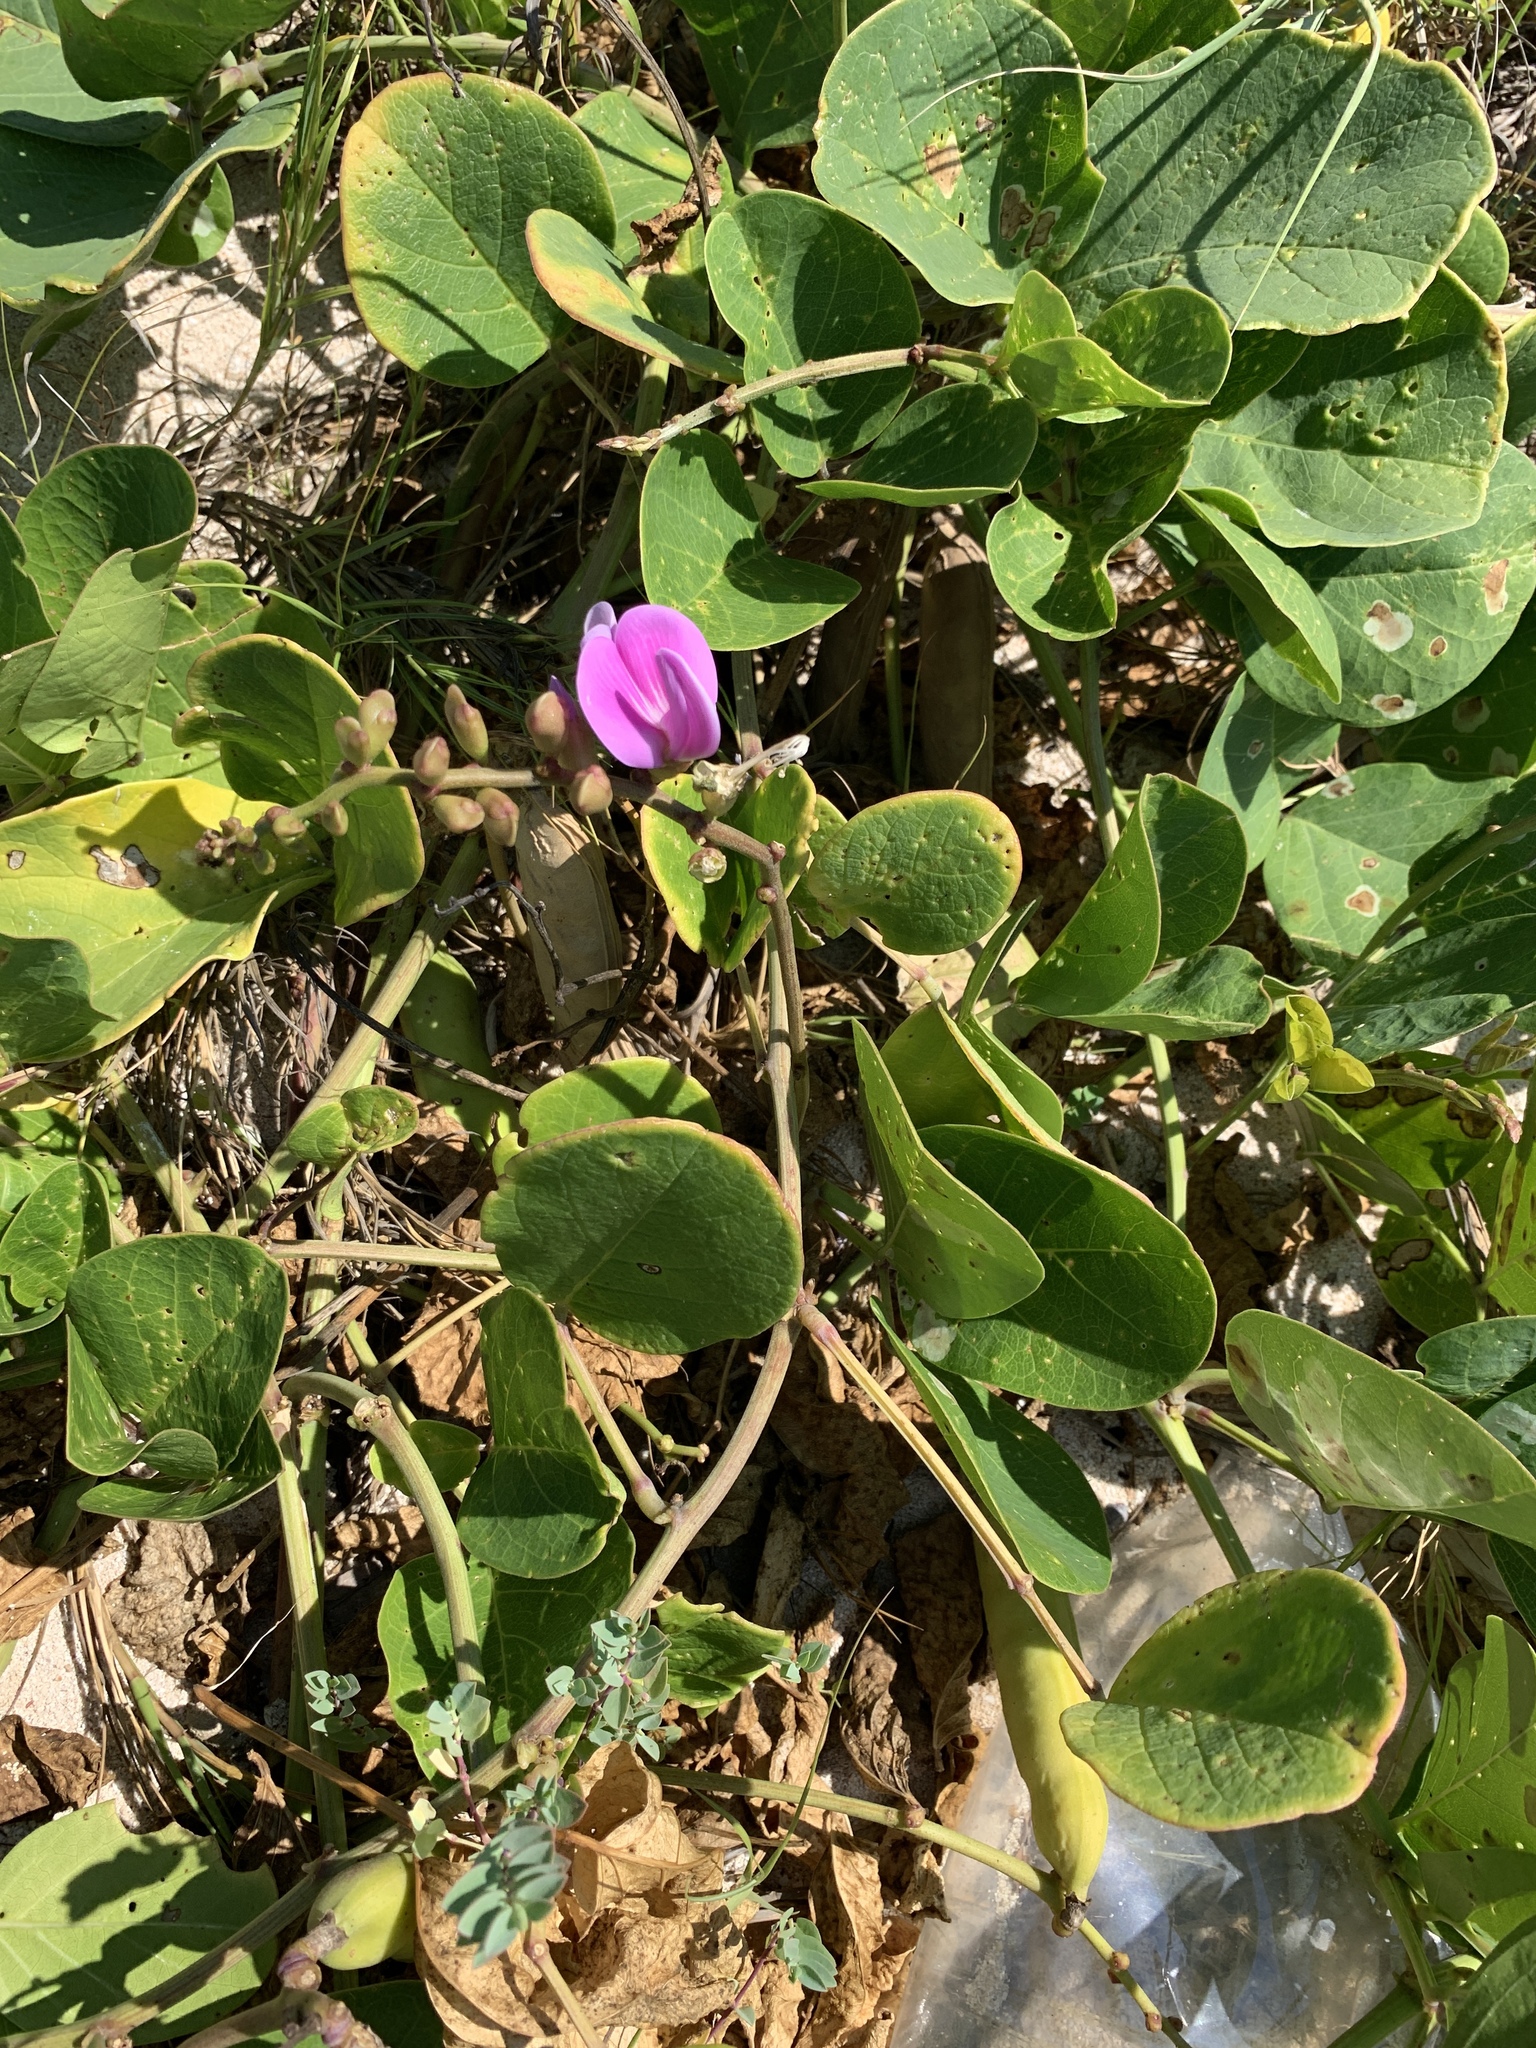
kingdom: Plantae
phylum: Tracheophyta
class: Magnoliopsida
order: Fabales
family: Fabaceae
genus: Canavalia
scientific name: Canavalia rosea
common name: Beach-bean
